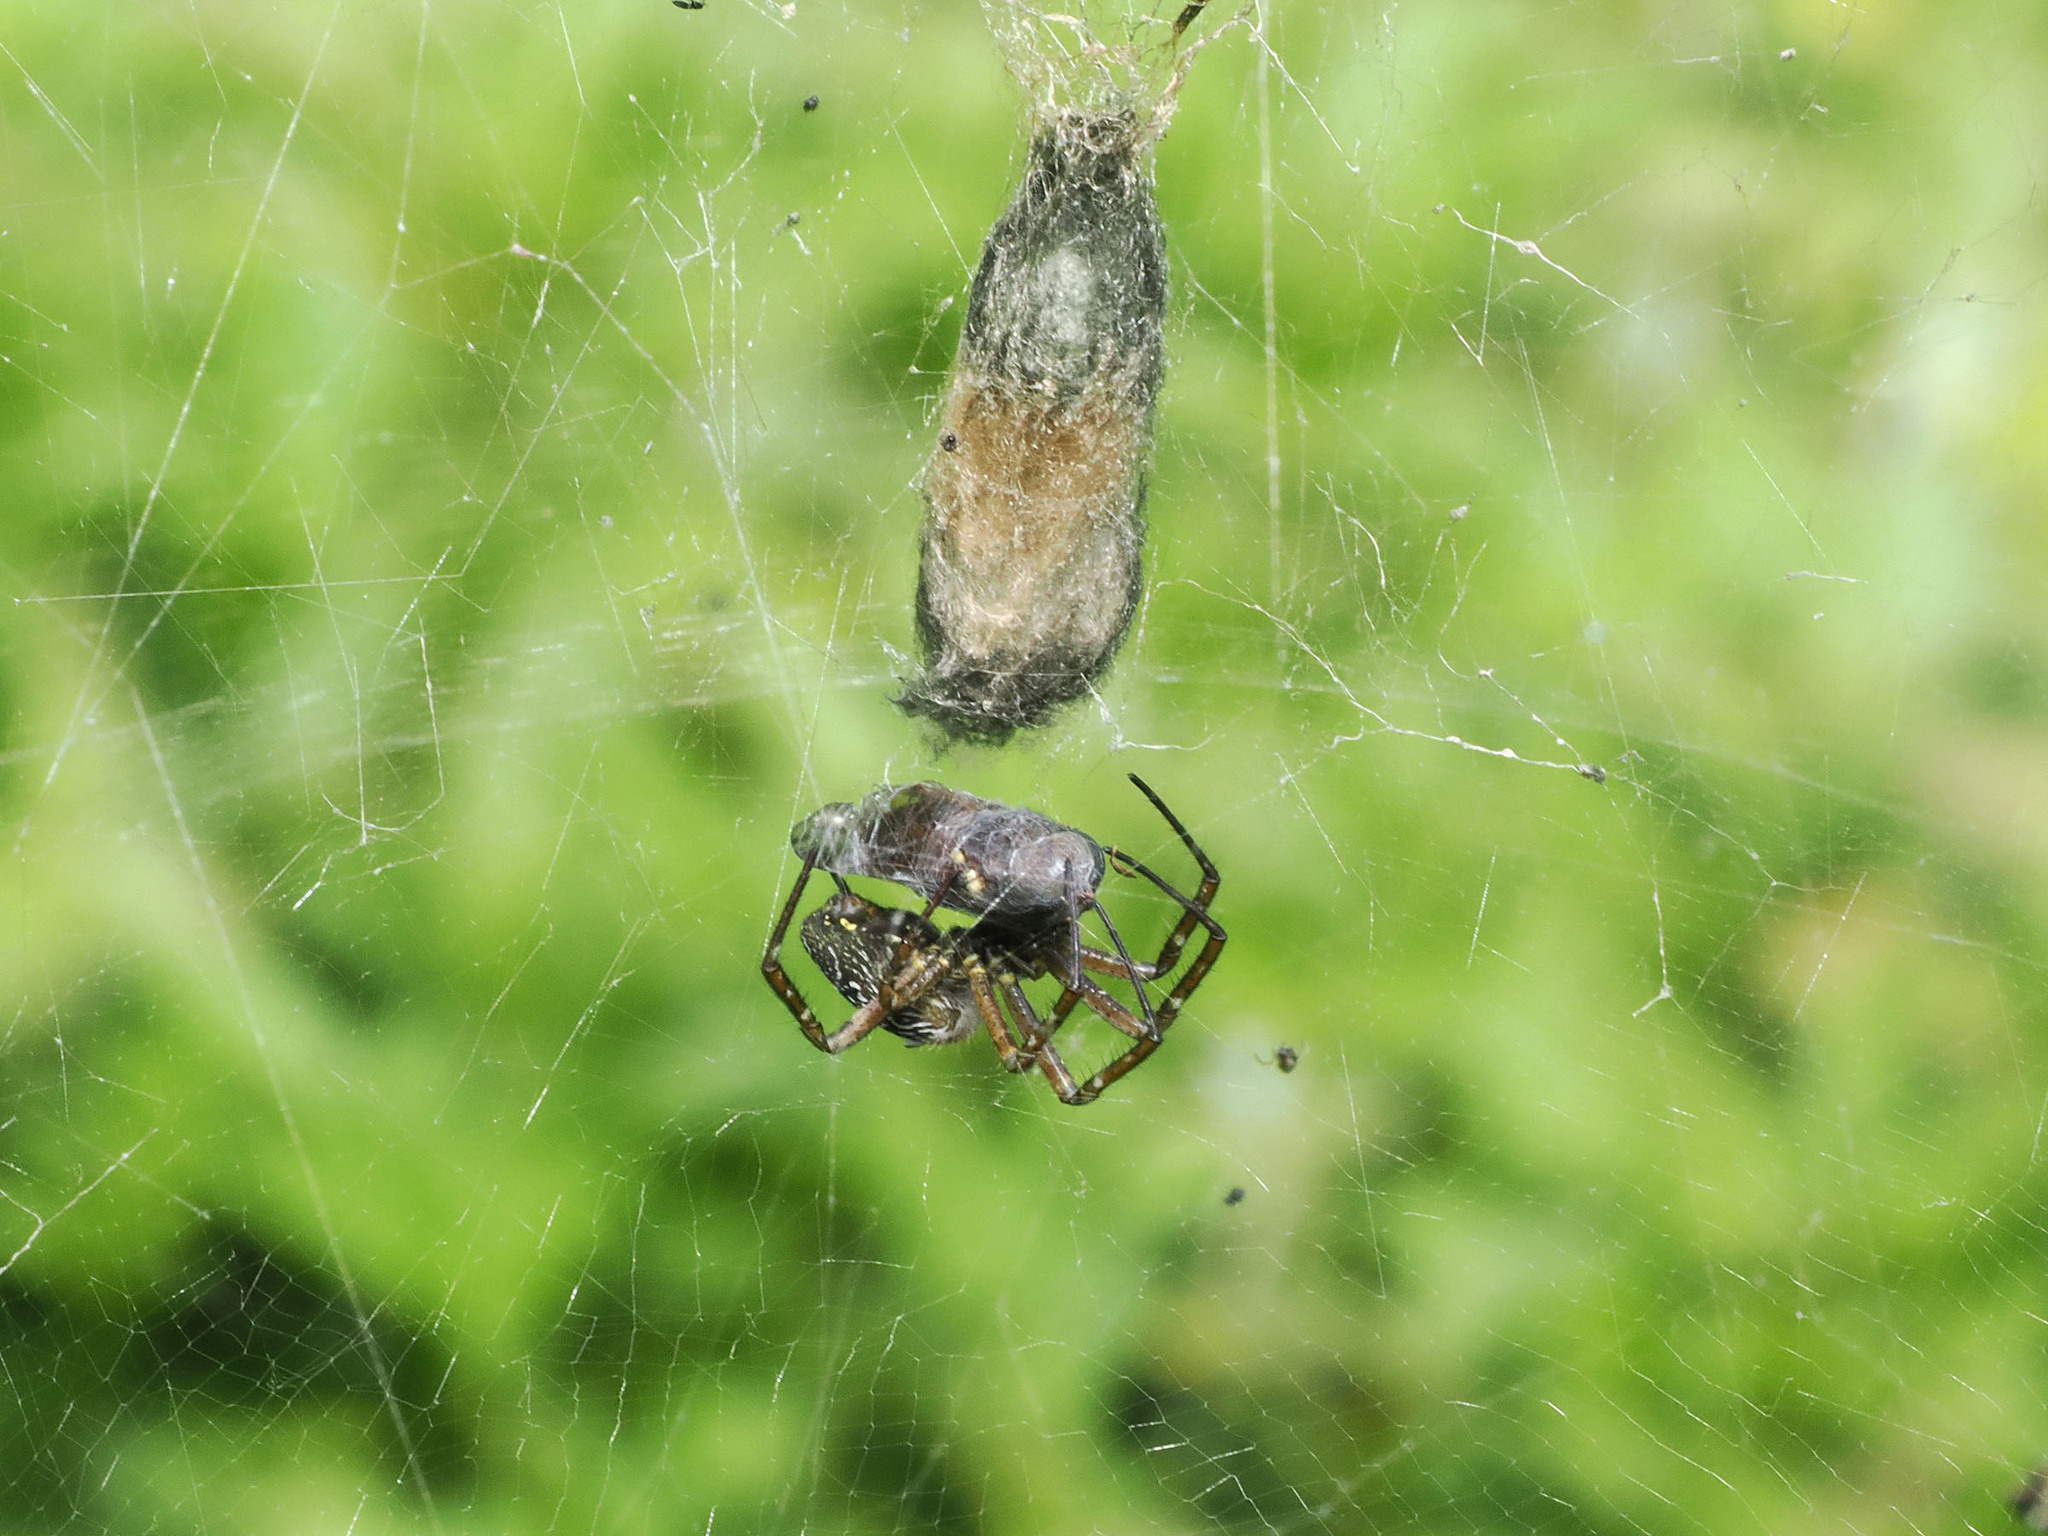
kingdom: Chromista
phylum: Ochrophyta
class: Dictyochophyceae
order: Pedinellales
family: Cyrtophoraceae
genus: Cyrtophora
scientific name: Cyrtophora moluccensis
